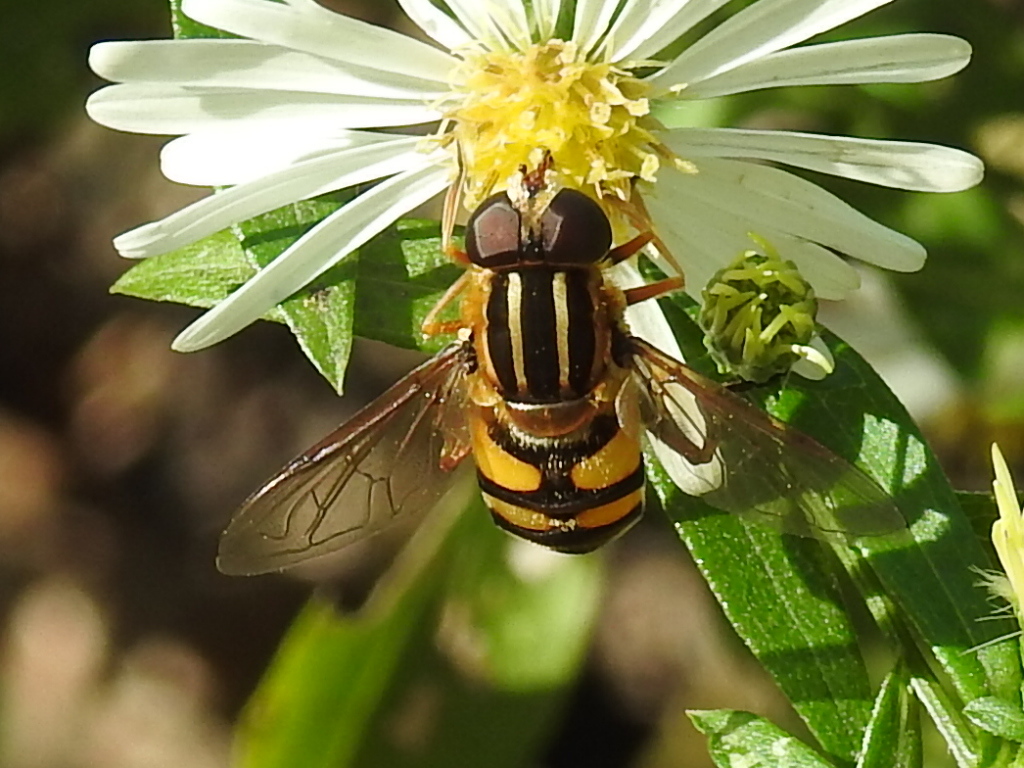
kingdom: Animalia
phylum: Arthropoda
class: Insecta
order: Diptera
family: Syrphidae
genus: Helophilus
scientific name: Helophilus fasciatus
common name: Narrow-headed marsh fly
